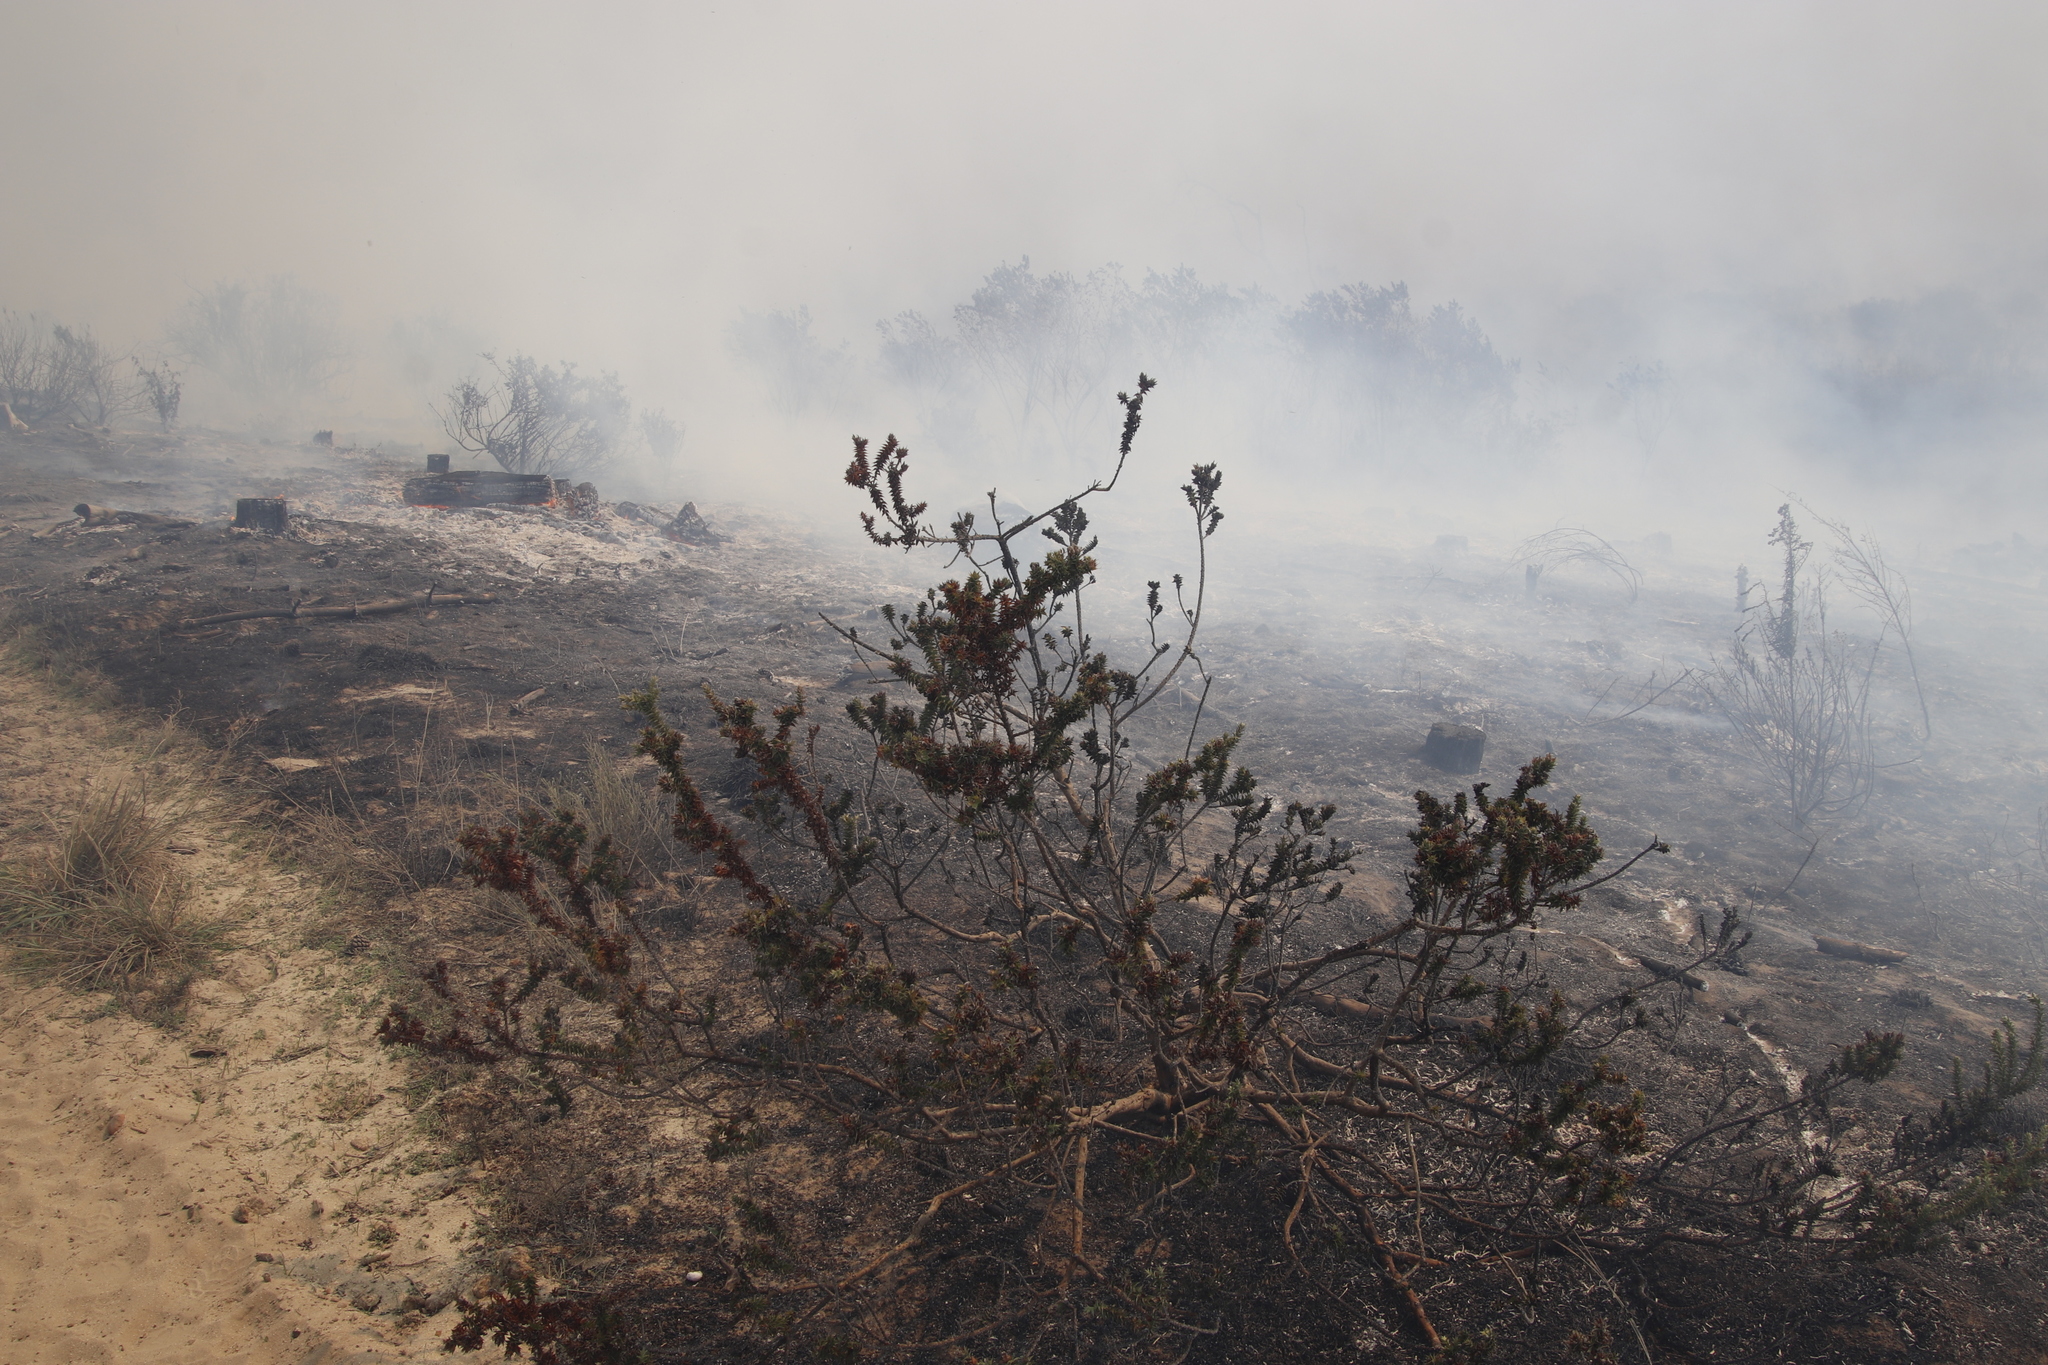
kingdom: Plantae
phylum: Tracheophyta
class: Magnoliopsida
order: Fabales
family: Fabaceae
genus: Aspalathus
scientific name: Aspalathus cordata
